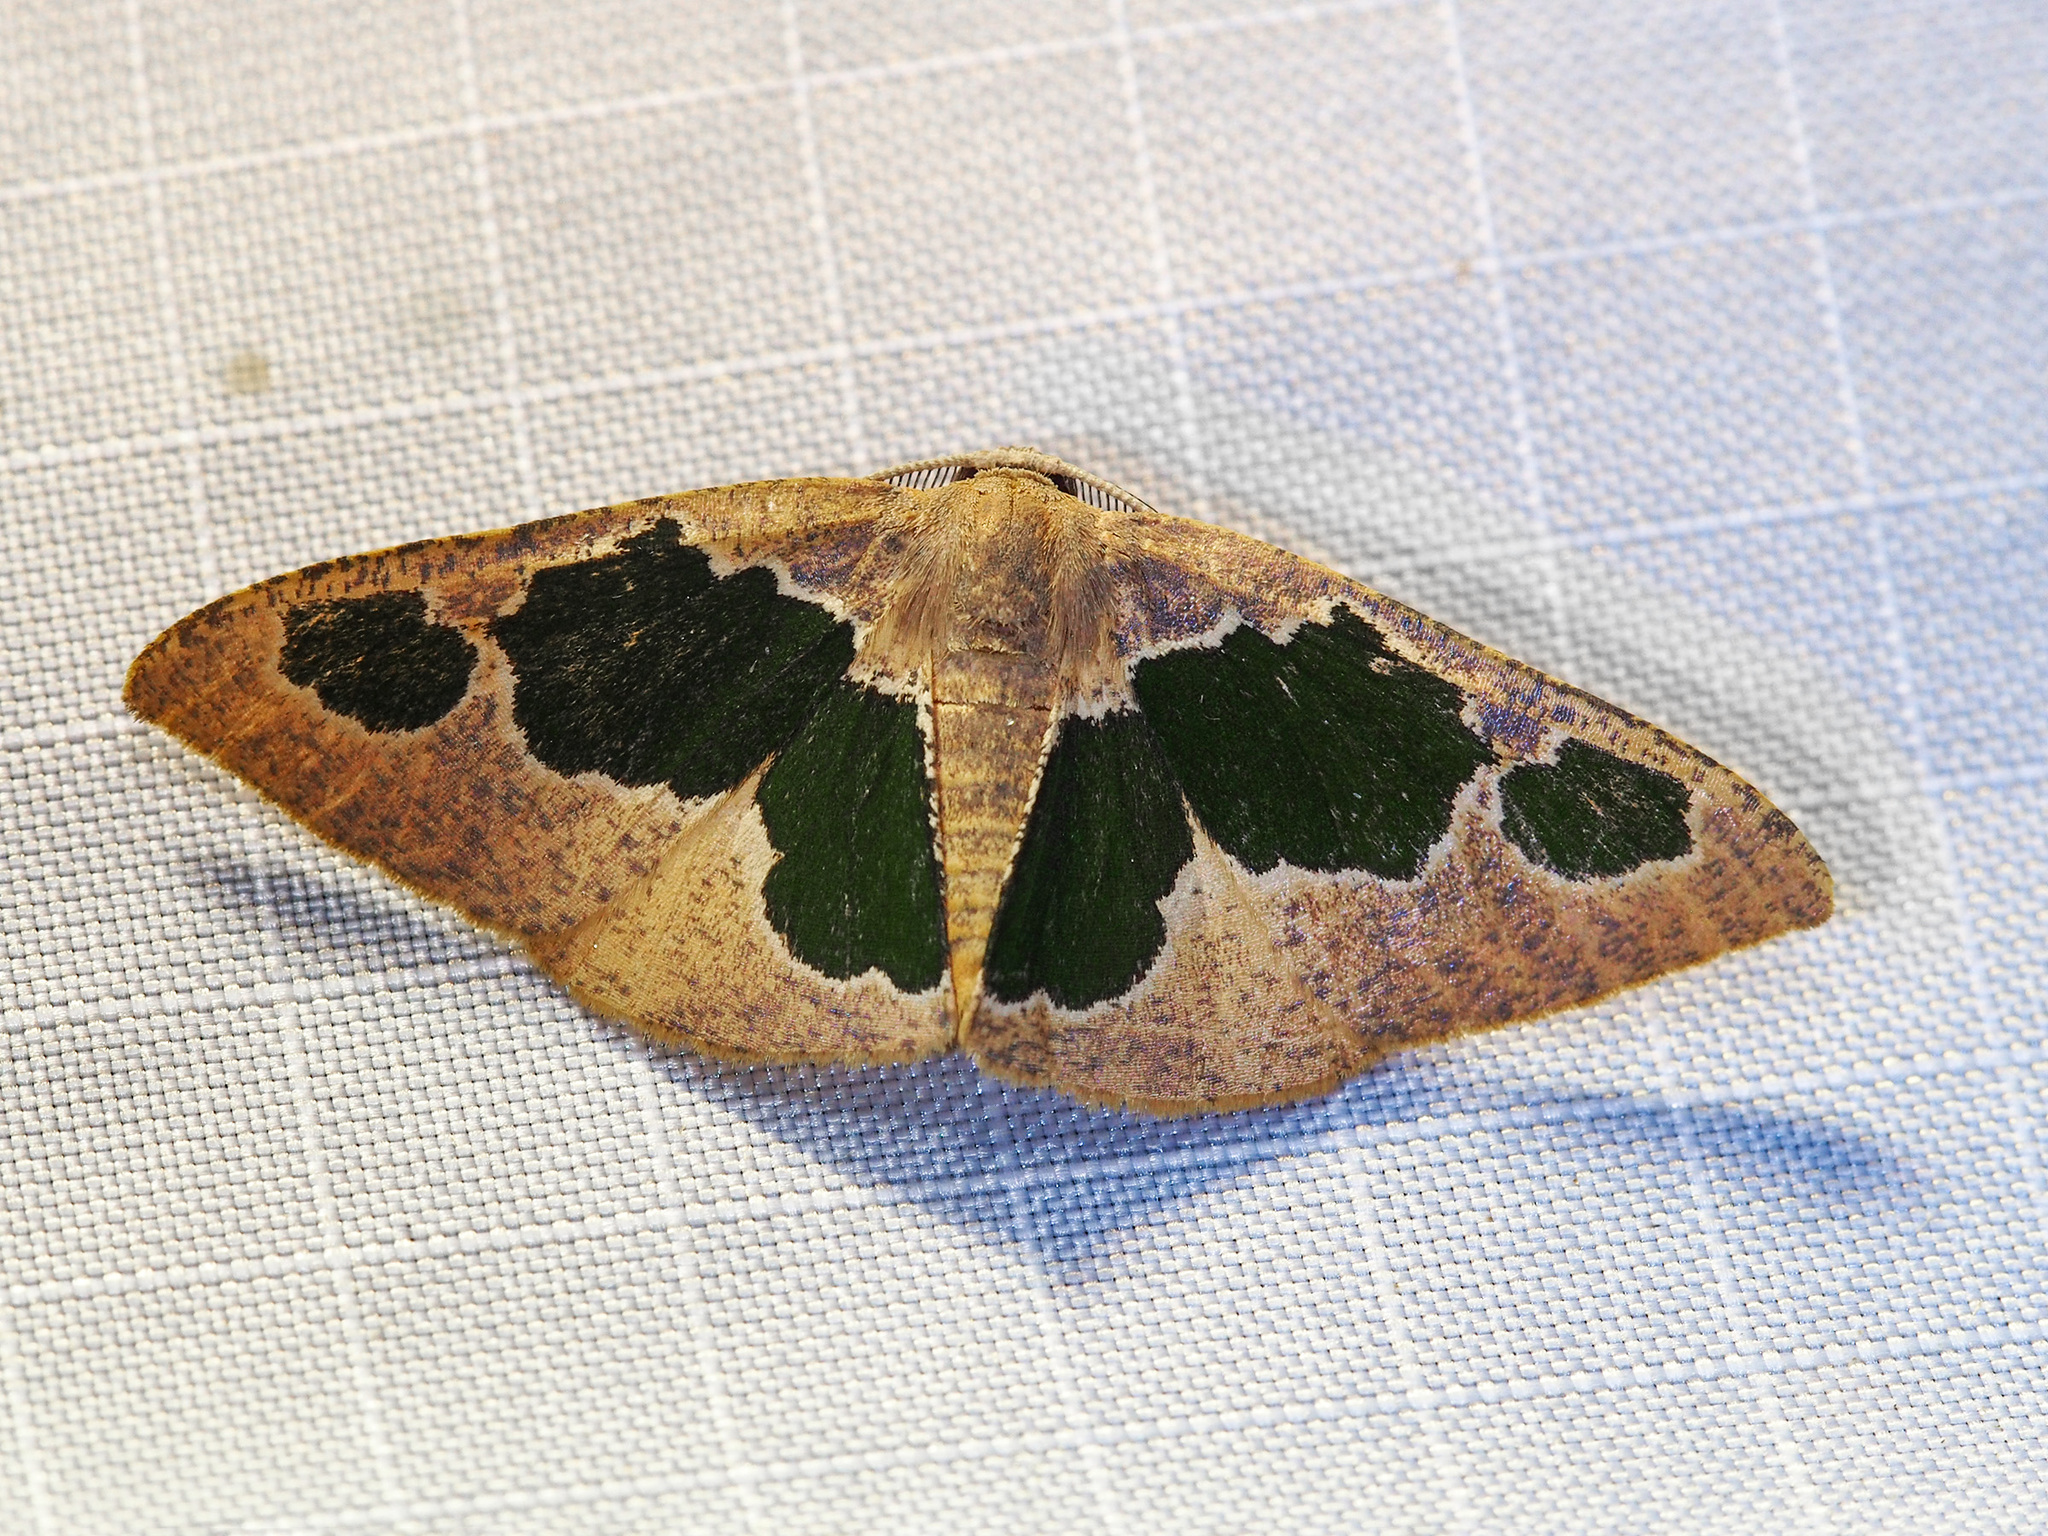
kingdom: Animalia
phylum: Arthropoda
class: Insecta
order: Lepidoptera
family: Geometridae
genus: Celenna
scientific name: Celenna festivaria
